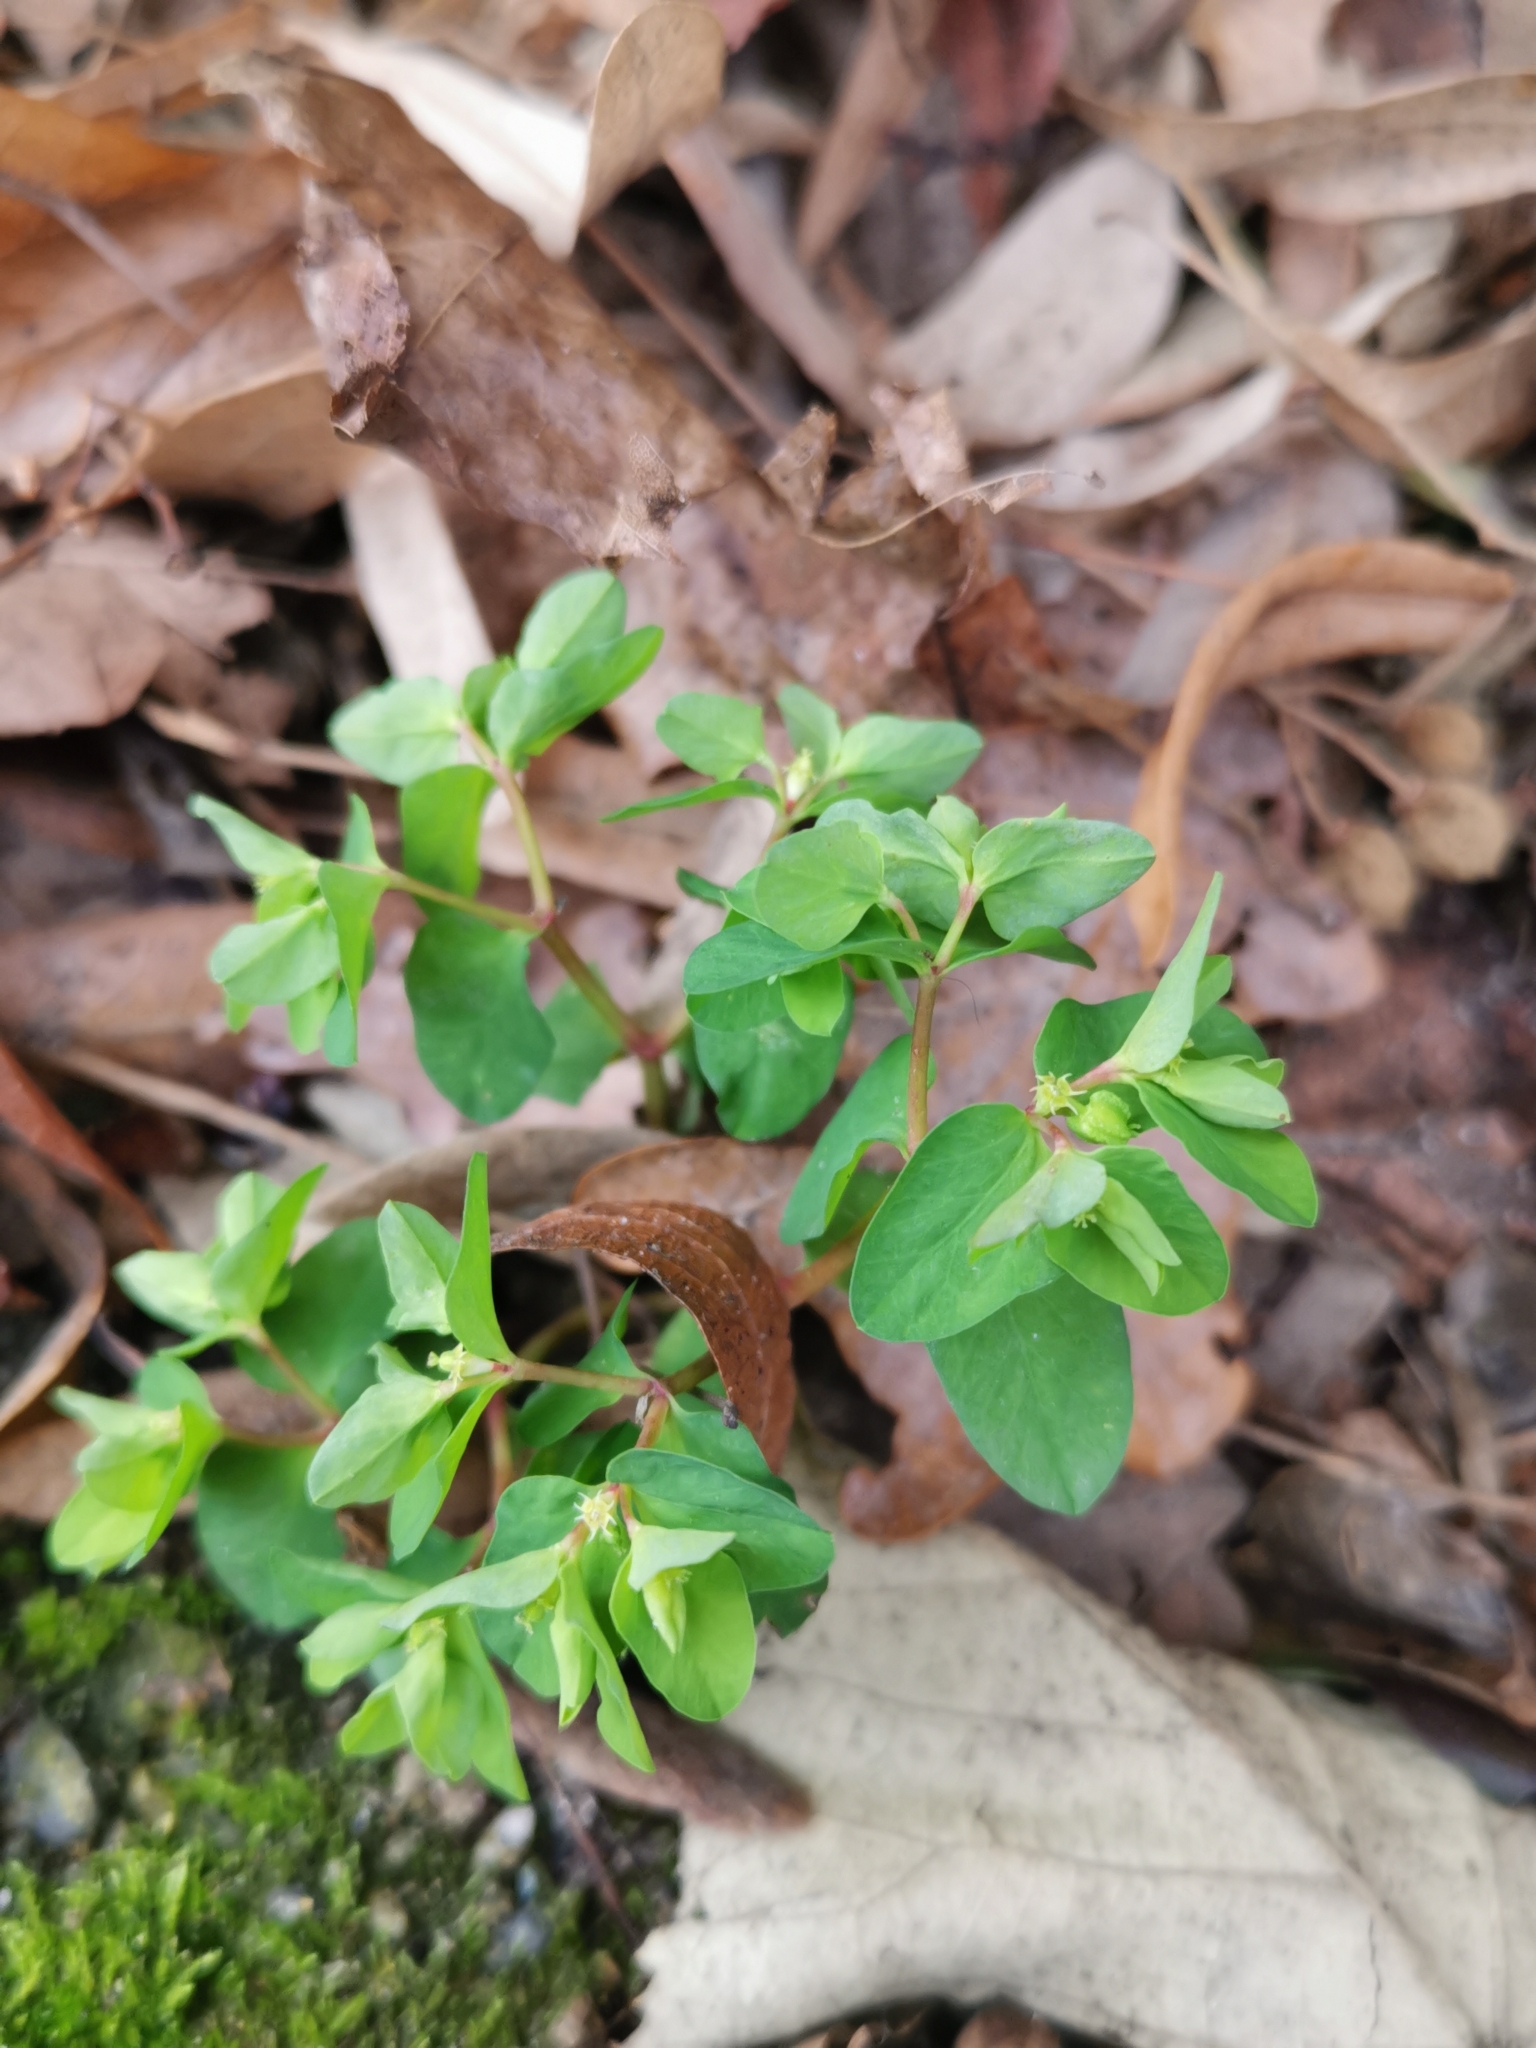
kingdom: Plantae
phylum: Tracheophyta
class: Magnoliopsida
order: Malpighiales
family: Euphorbiaceae
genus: Euphorbia
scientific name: Euphorbia peplus
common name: Petty spurge
